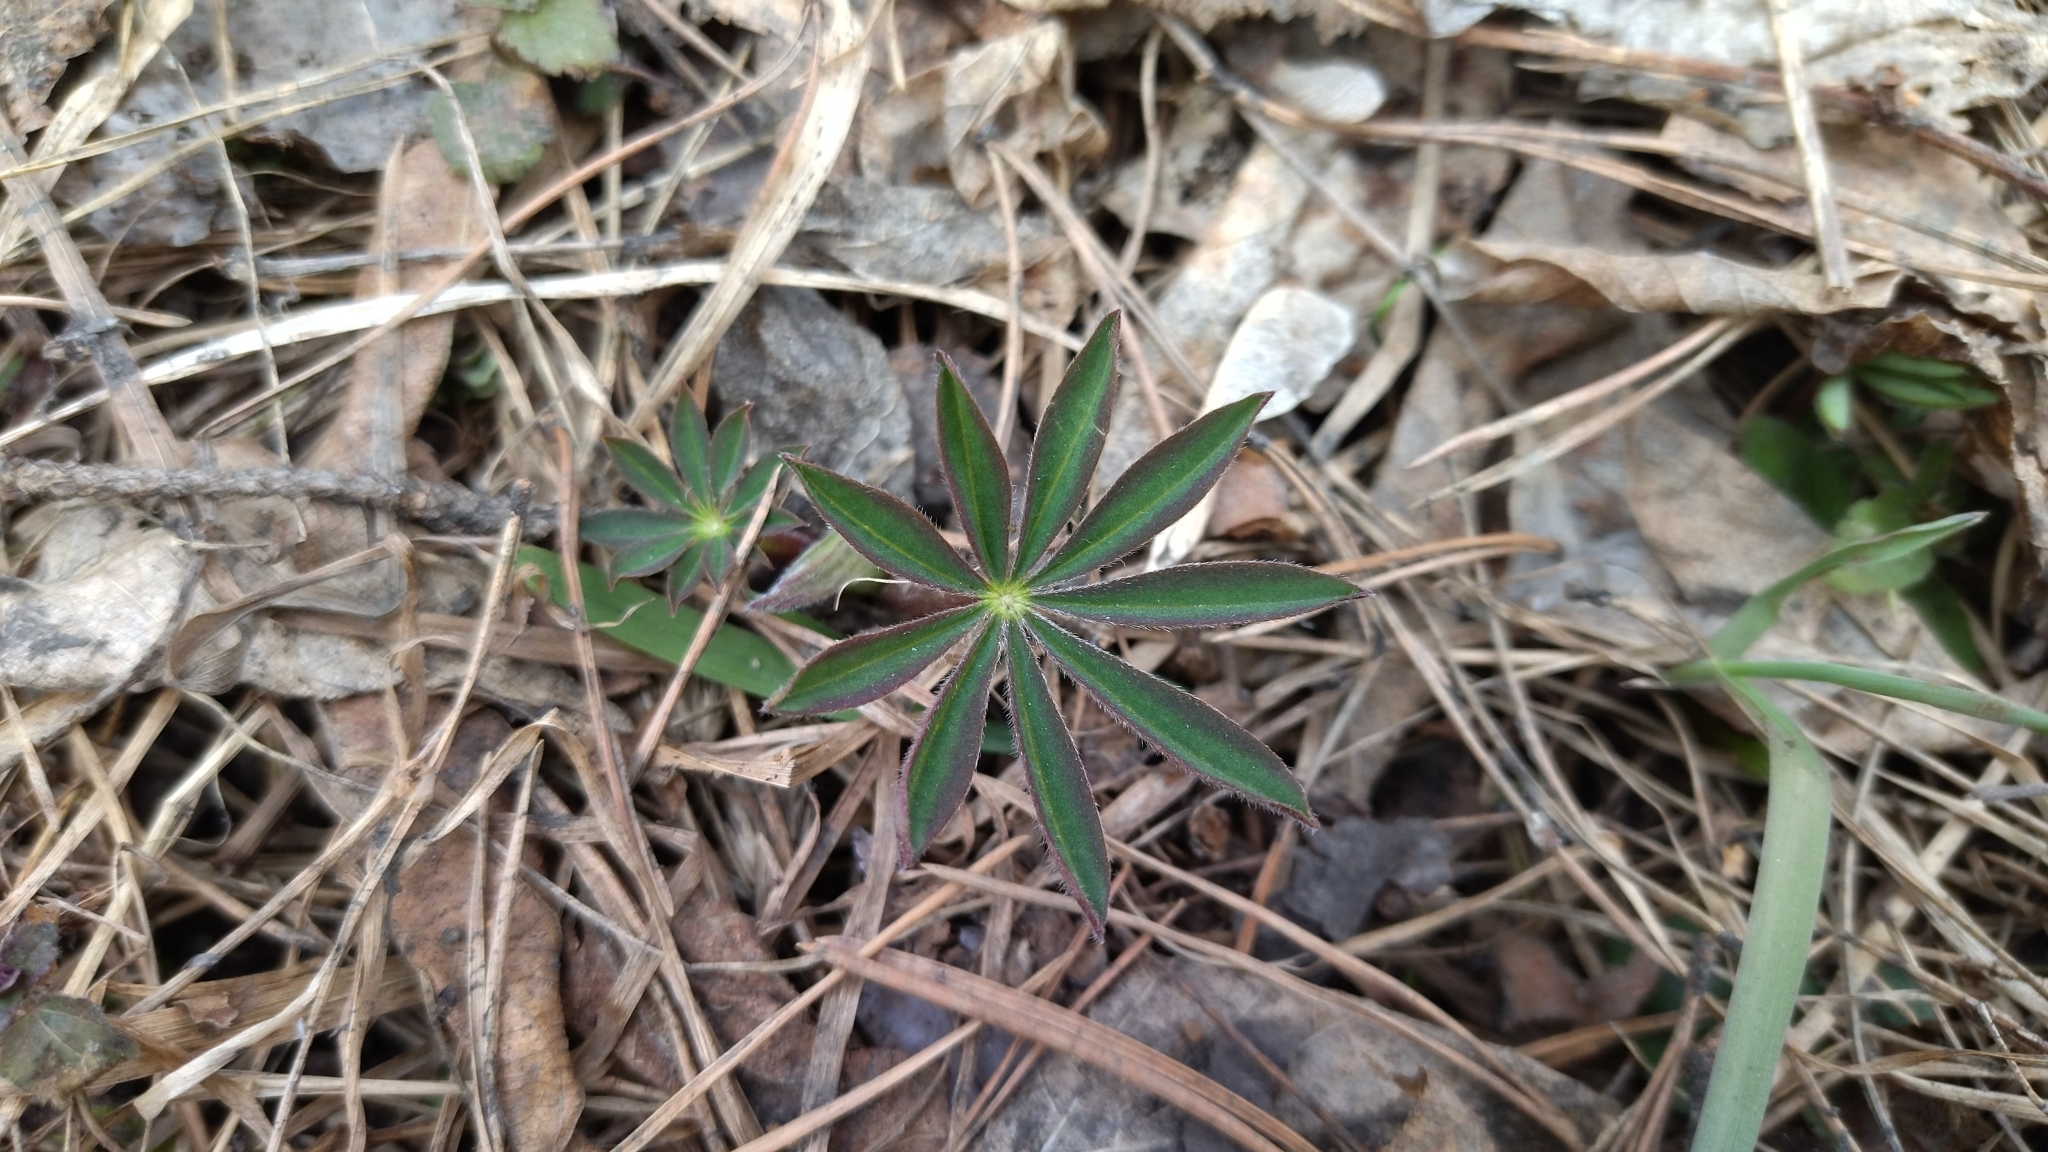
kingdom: Plantae
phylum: Tracheophyta
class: Magnoliopsida
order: Fabales
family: Fabaceae
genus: Lupinus
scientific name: Lupinus polyphyllus
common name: Garden lupin
